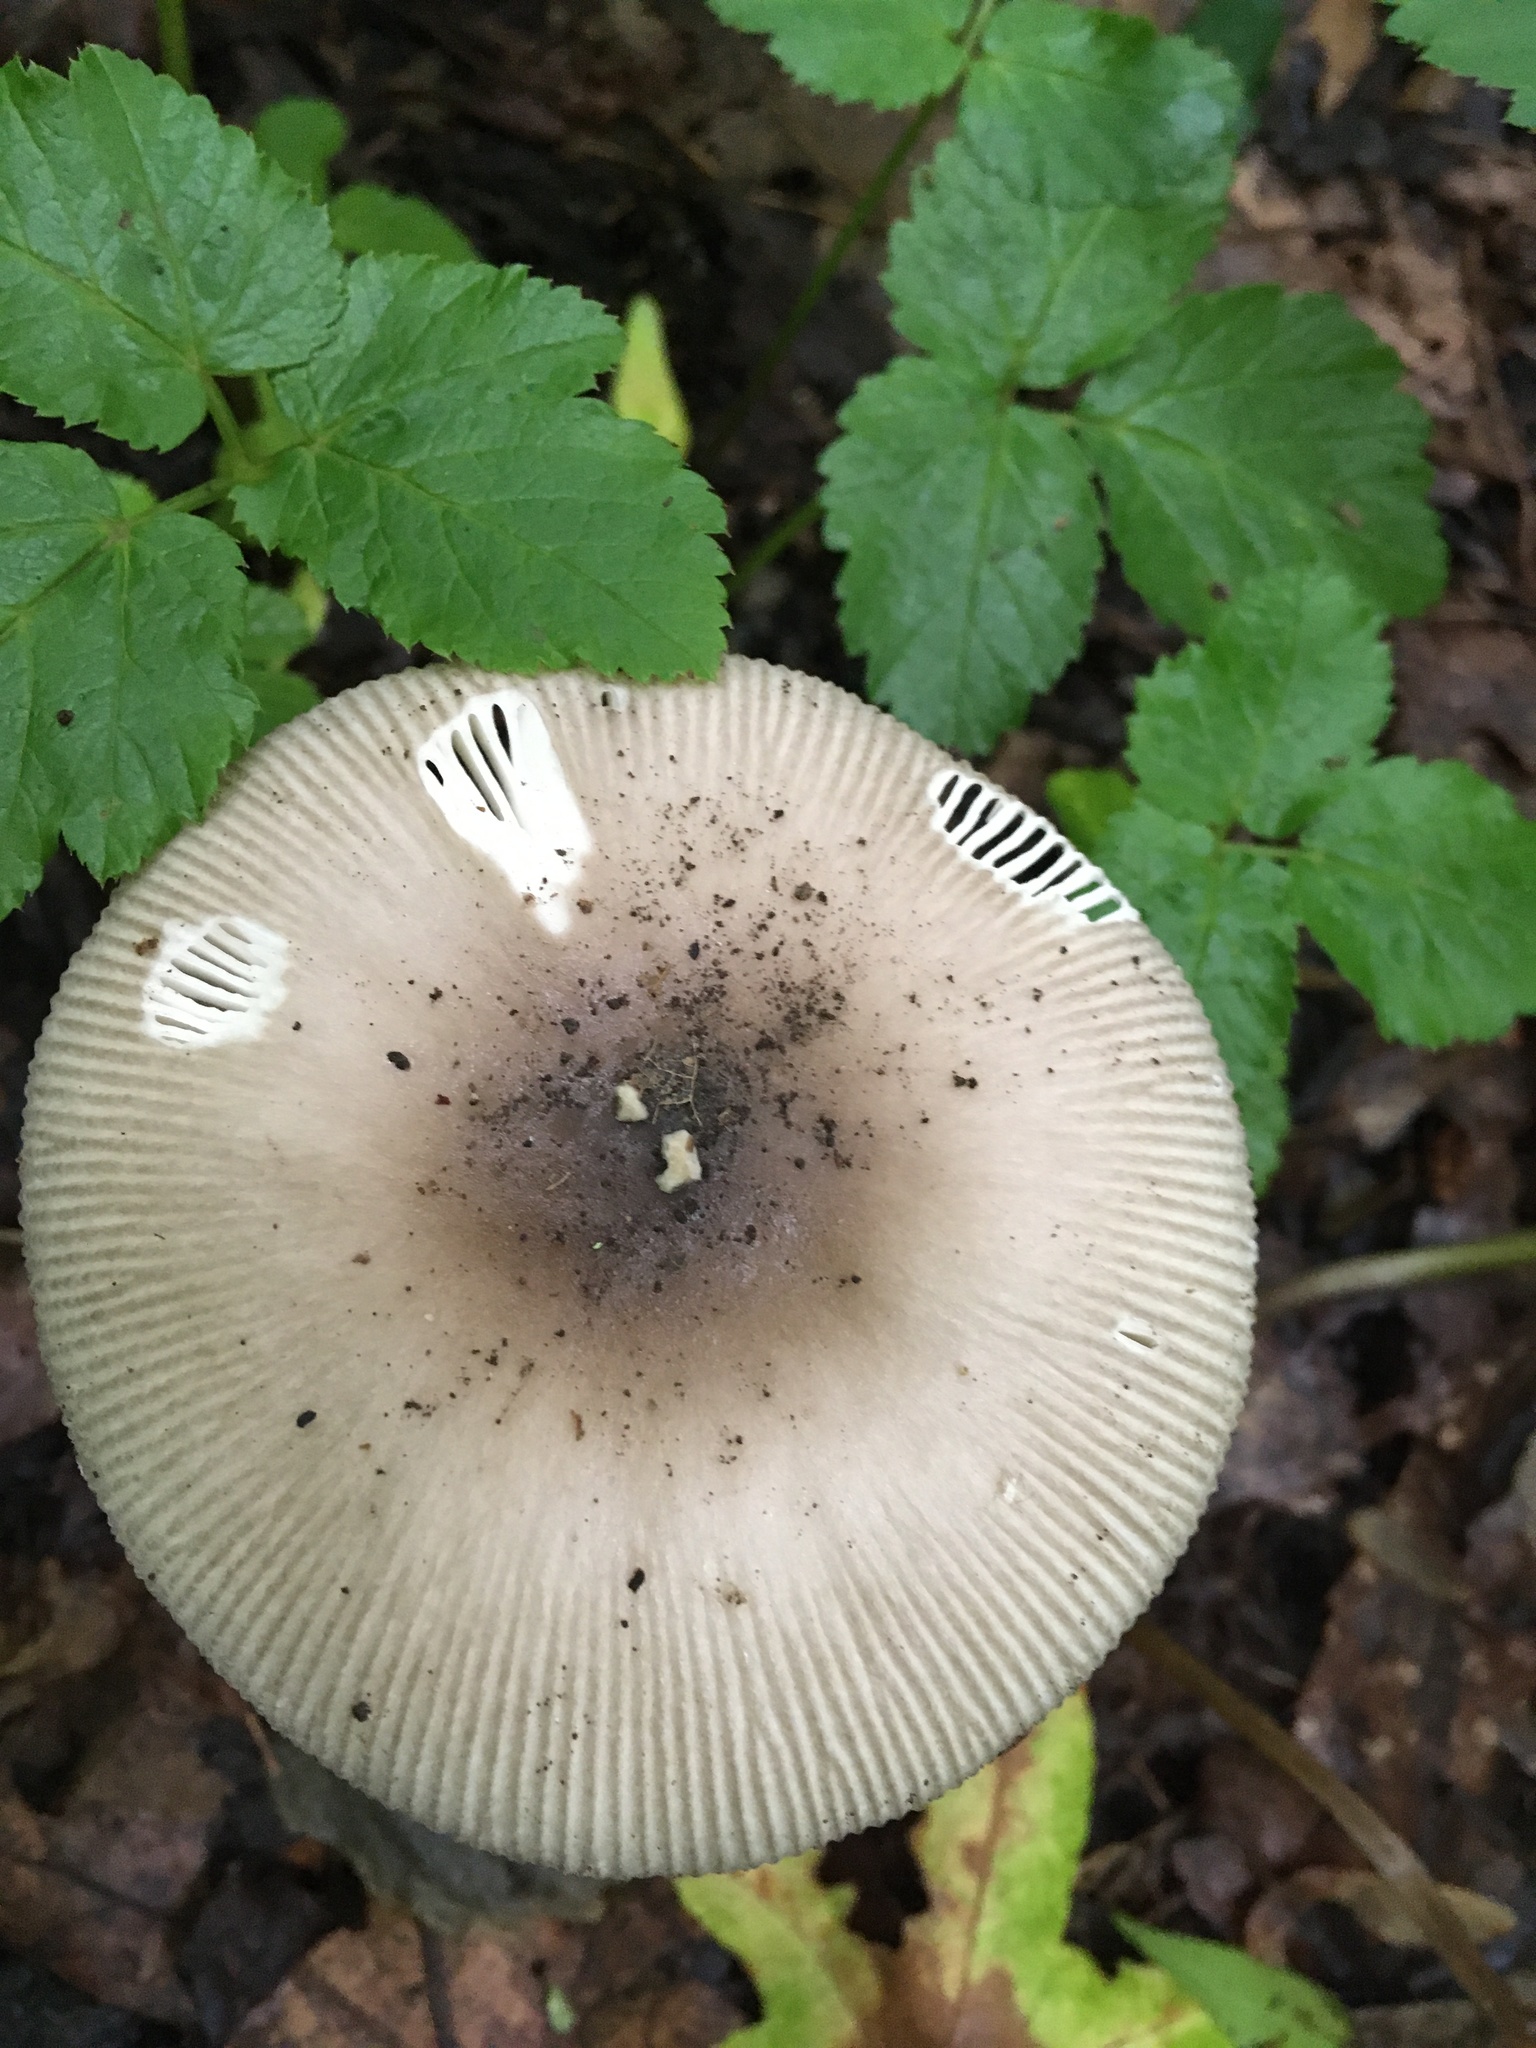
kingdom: Fungi
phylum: Basidiomycota
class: Agaricomycetes
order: Agaricales
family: Amanitaceae
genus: Amanita
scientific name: Amanita spreta
